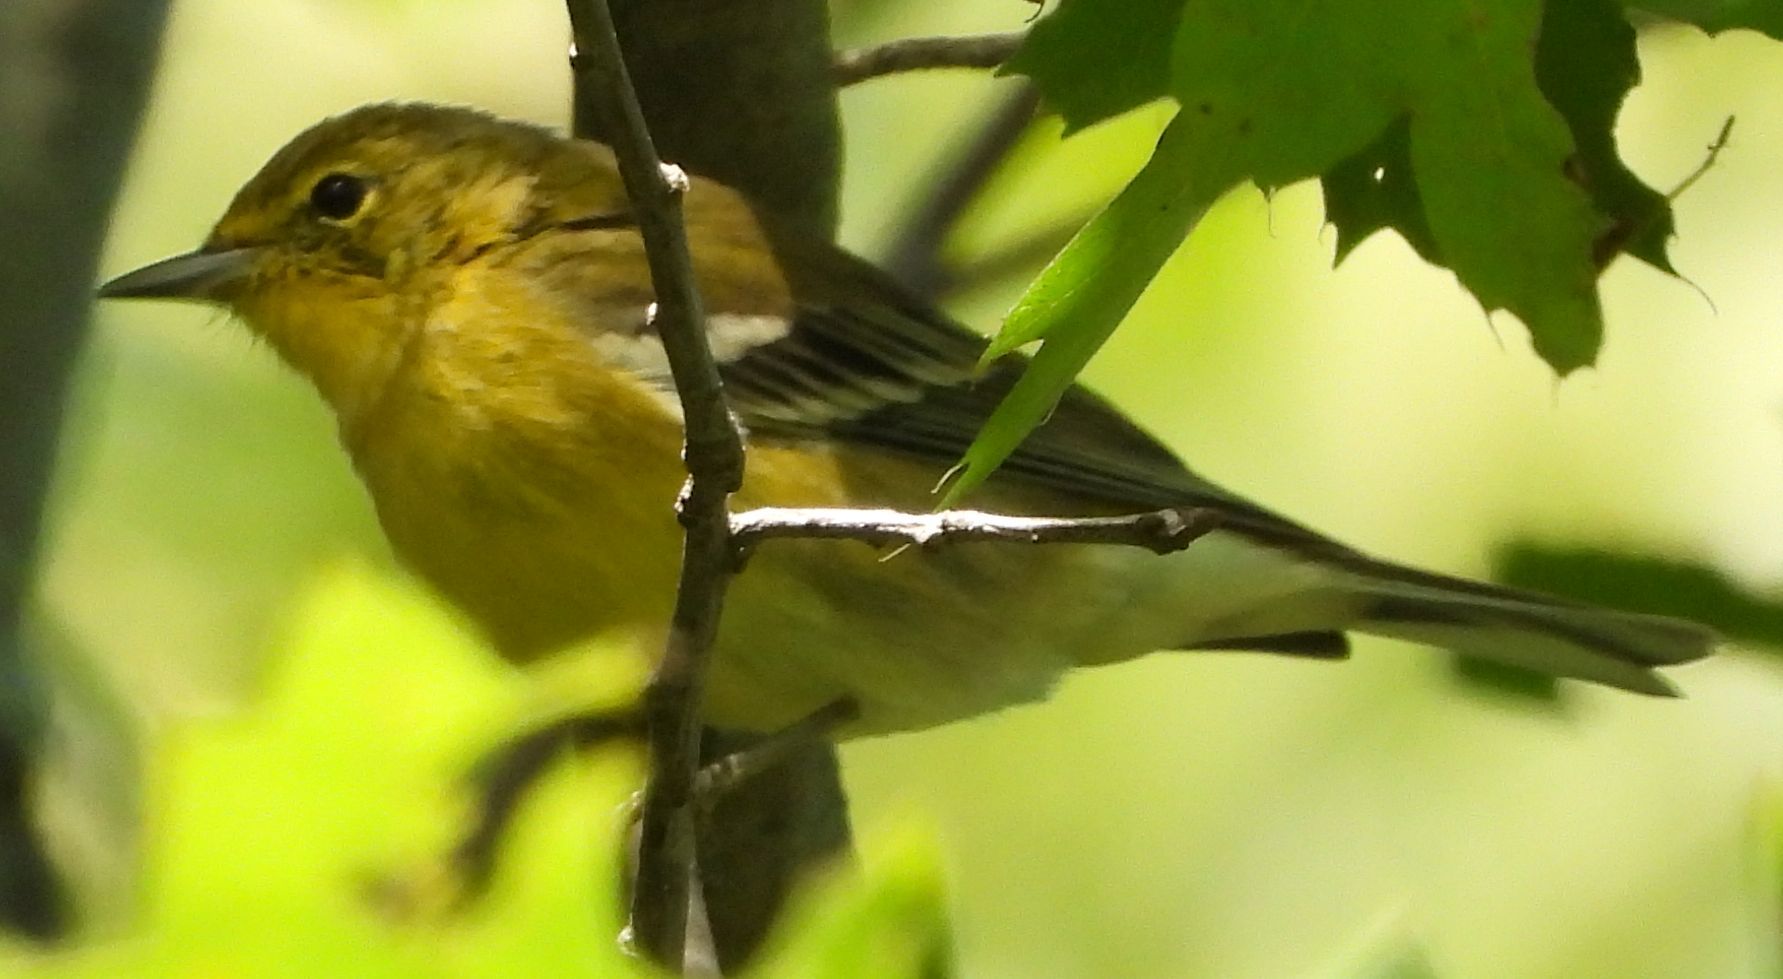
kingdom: Animalia
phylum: Chordata
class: Aves
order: Passeriformes
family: Parulidae
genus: Setophaga
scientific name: Setophaga pinus
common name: Pine warbler
